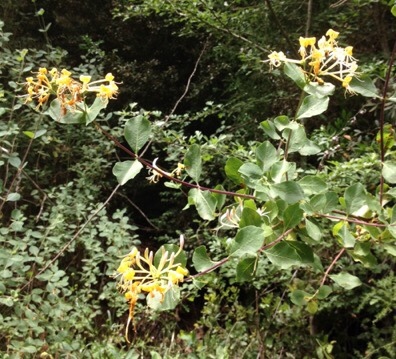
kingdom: Plantae
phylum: Tracheophyta
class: Magnoliopsida
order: Dipsacales
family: Caprifoliaceae
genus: Lonicera
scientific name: Lonicera etrusca
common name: Etruscan honeysuckle
